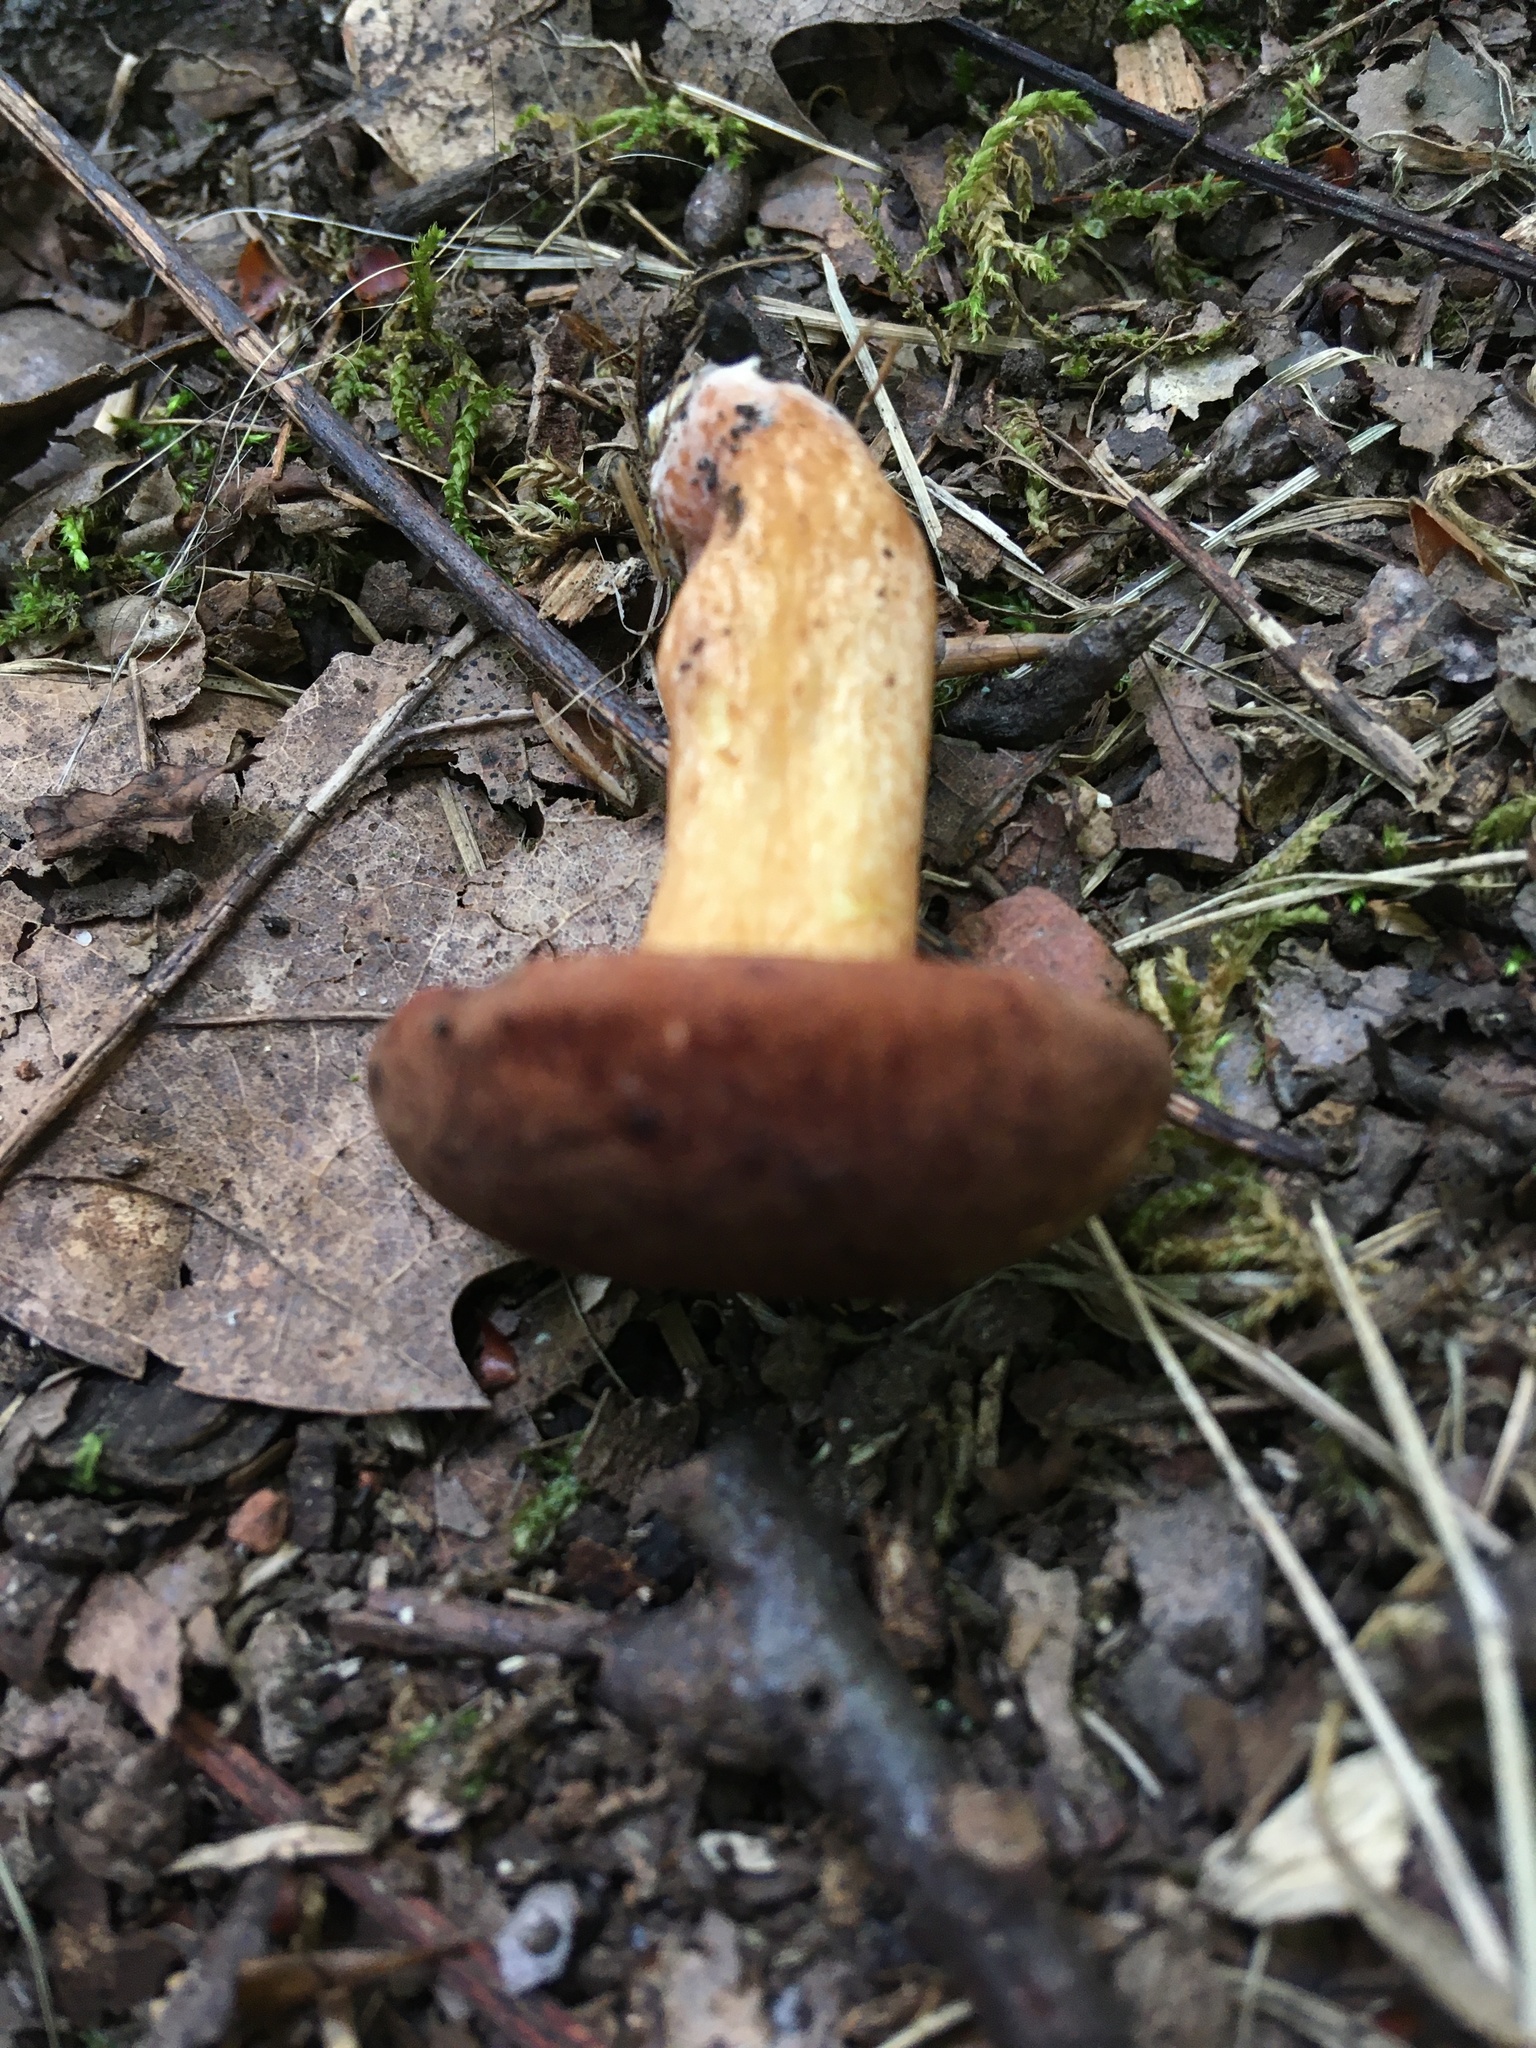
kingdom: Fungi
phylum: Basidiomycota
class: Agaricomycetes
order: Boletales
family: Boletaceae
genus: Bothia
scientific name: Bothia castanella
